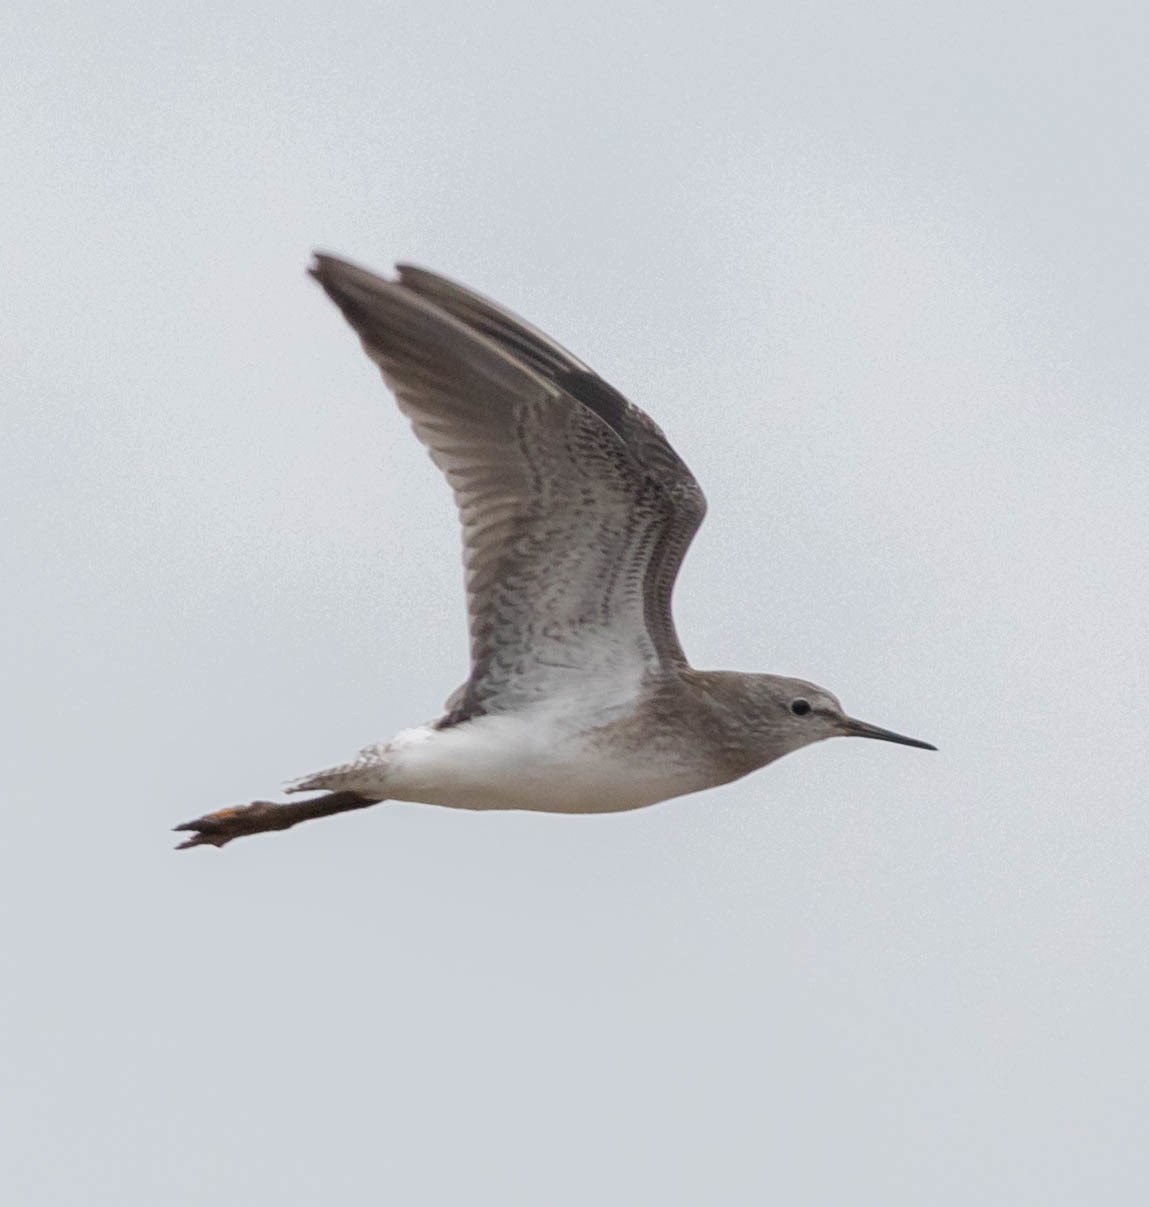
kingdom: Animalia
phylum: Chordata
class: Aves
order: Charadriiformes
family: Scolopacidae
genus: Tringa
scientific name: Tringa flavipes
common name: Lesser yellowlegs
